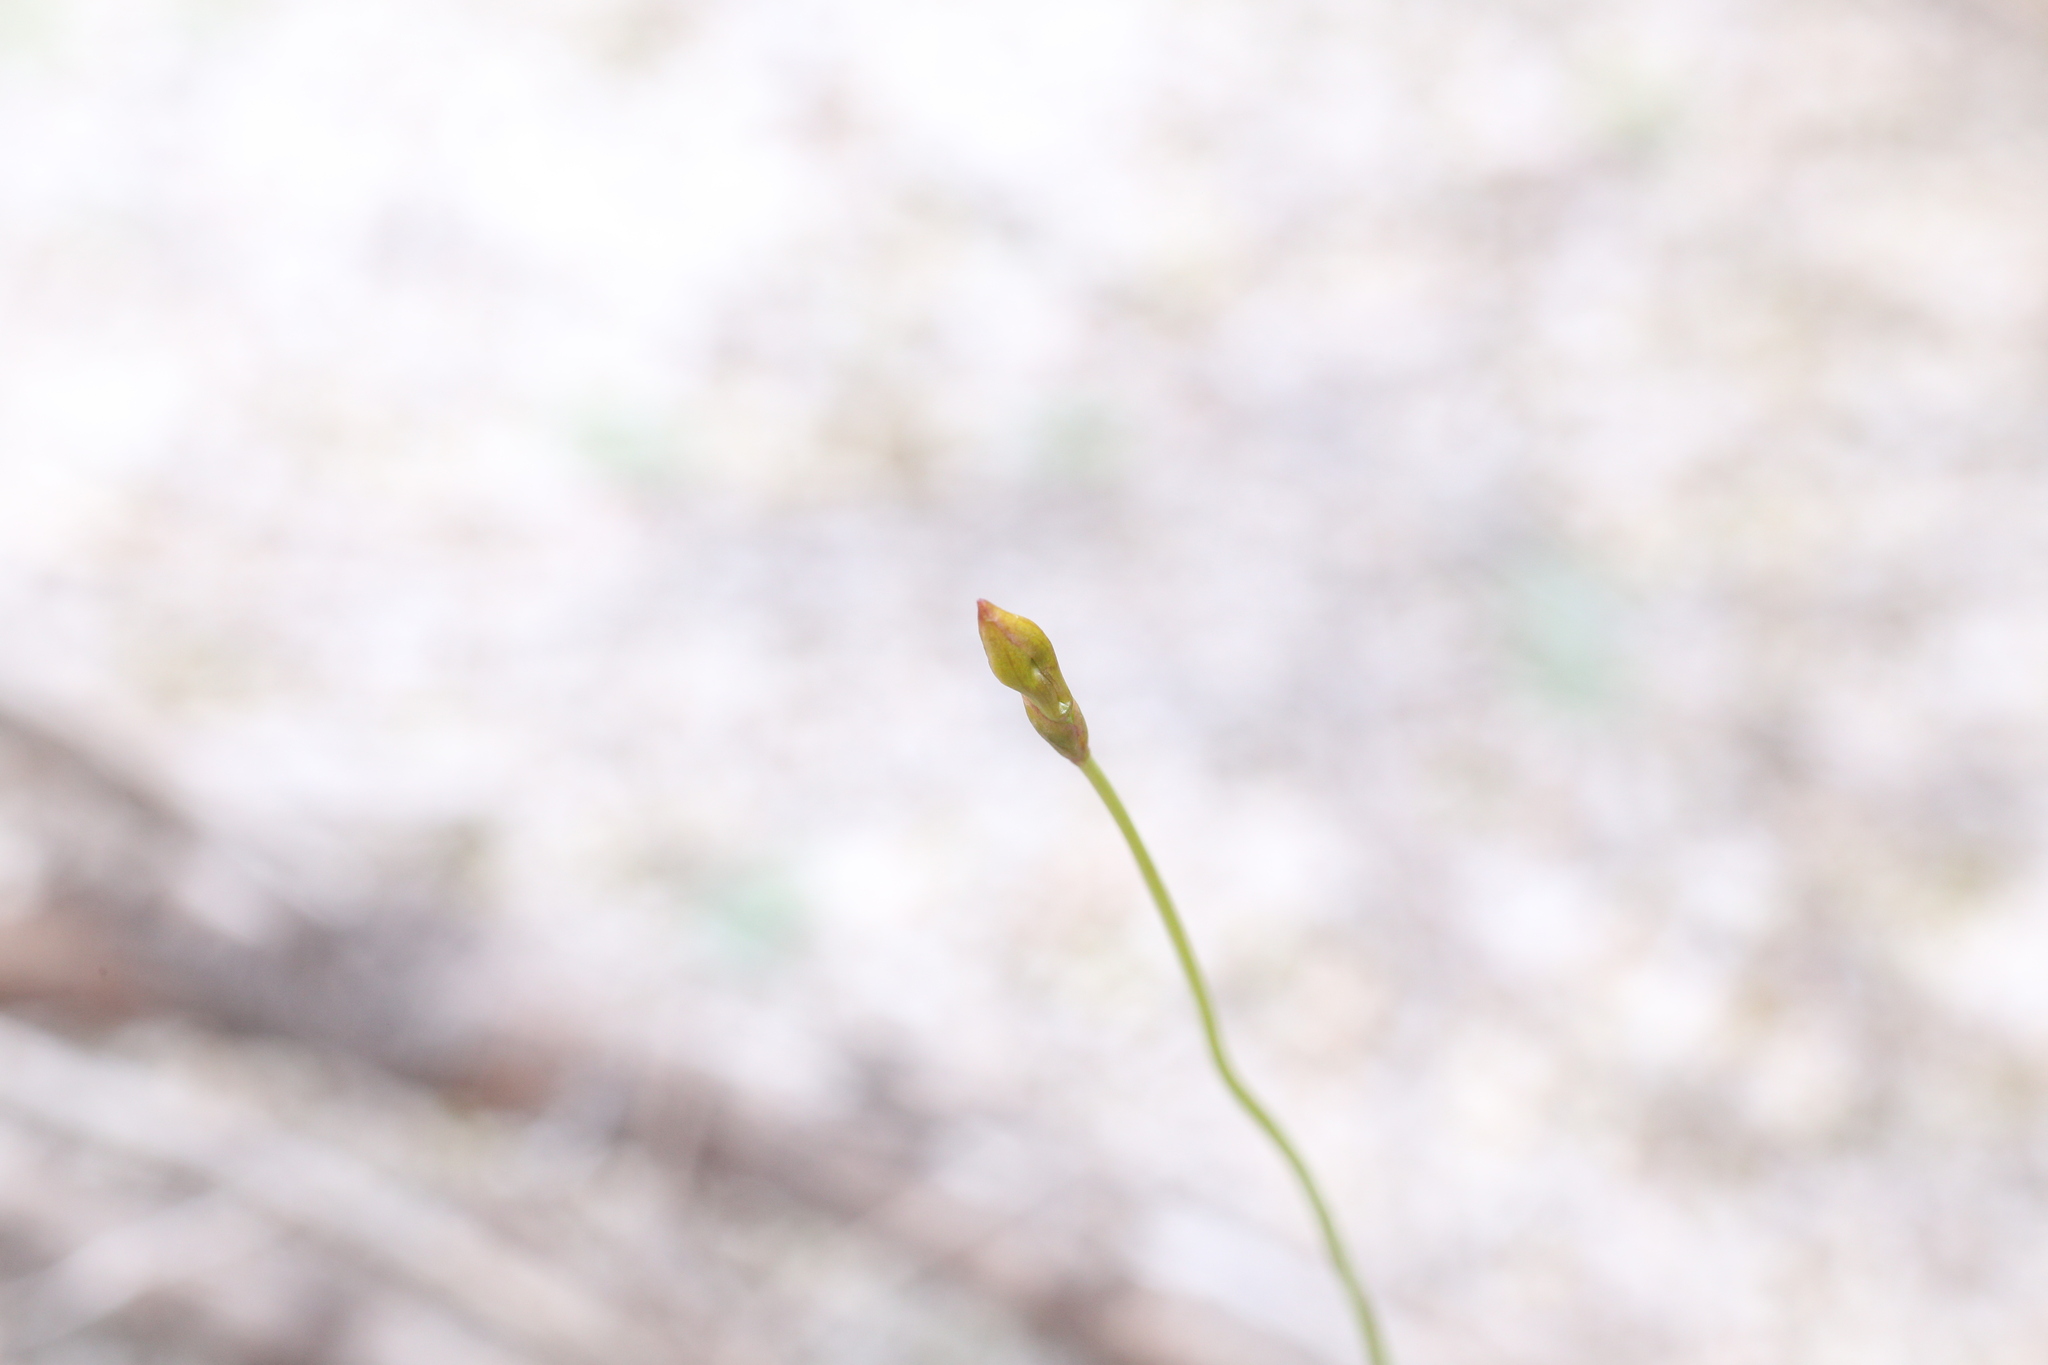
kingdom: Plantae
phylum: Tracheophyta
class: Liliopsida
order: Asparagales
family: Orchidaceae
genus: Drakaea
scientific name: Drakaea glyptodon
